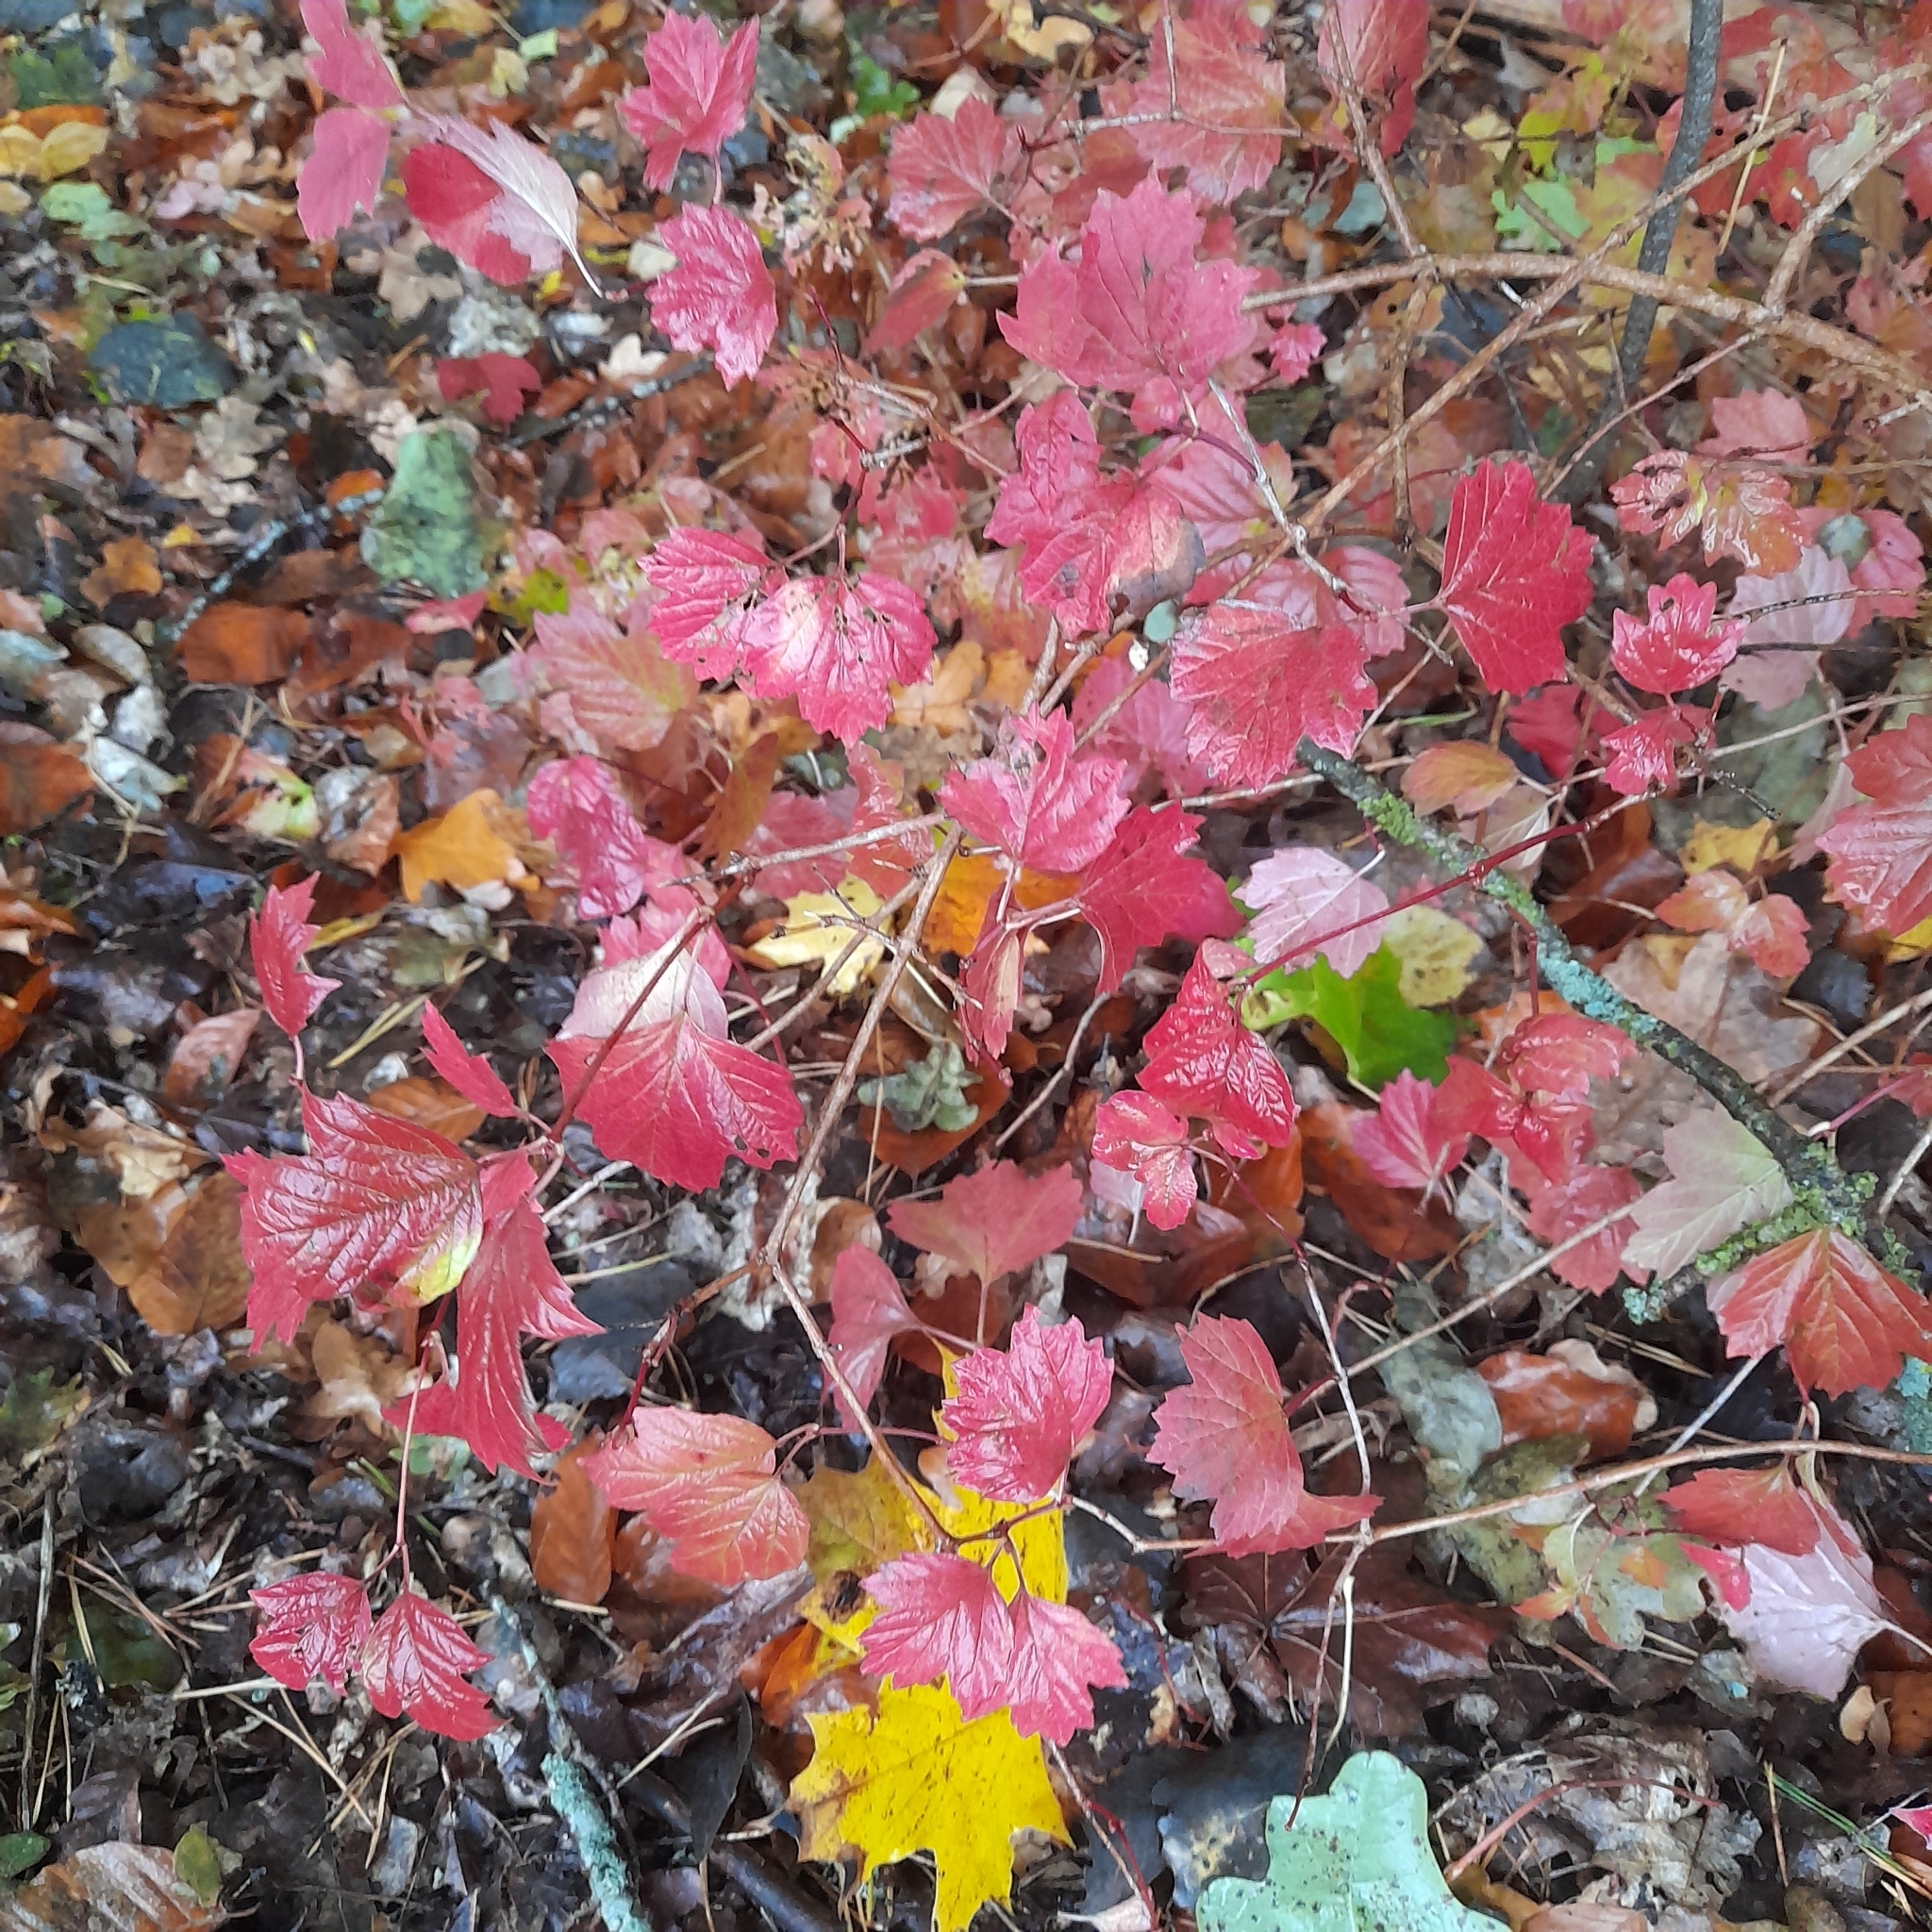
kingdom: Plantae
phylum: Tracheophyta
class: Magnoliopsida
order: Dipsacales
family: Viburnaceae
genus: Viburnum
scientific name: Viburnum opulus
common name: Guelder-rose
